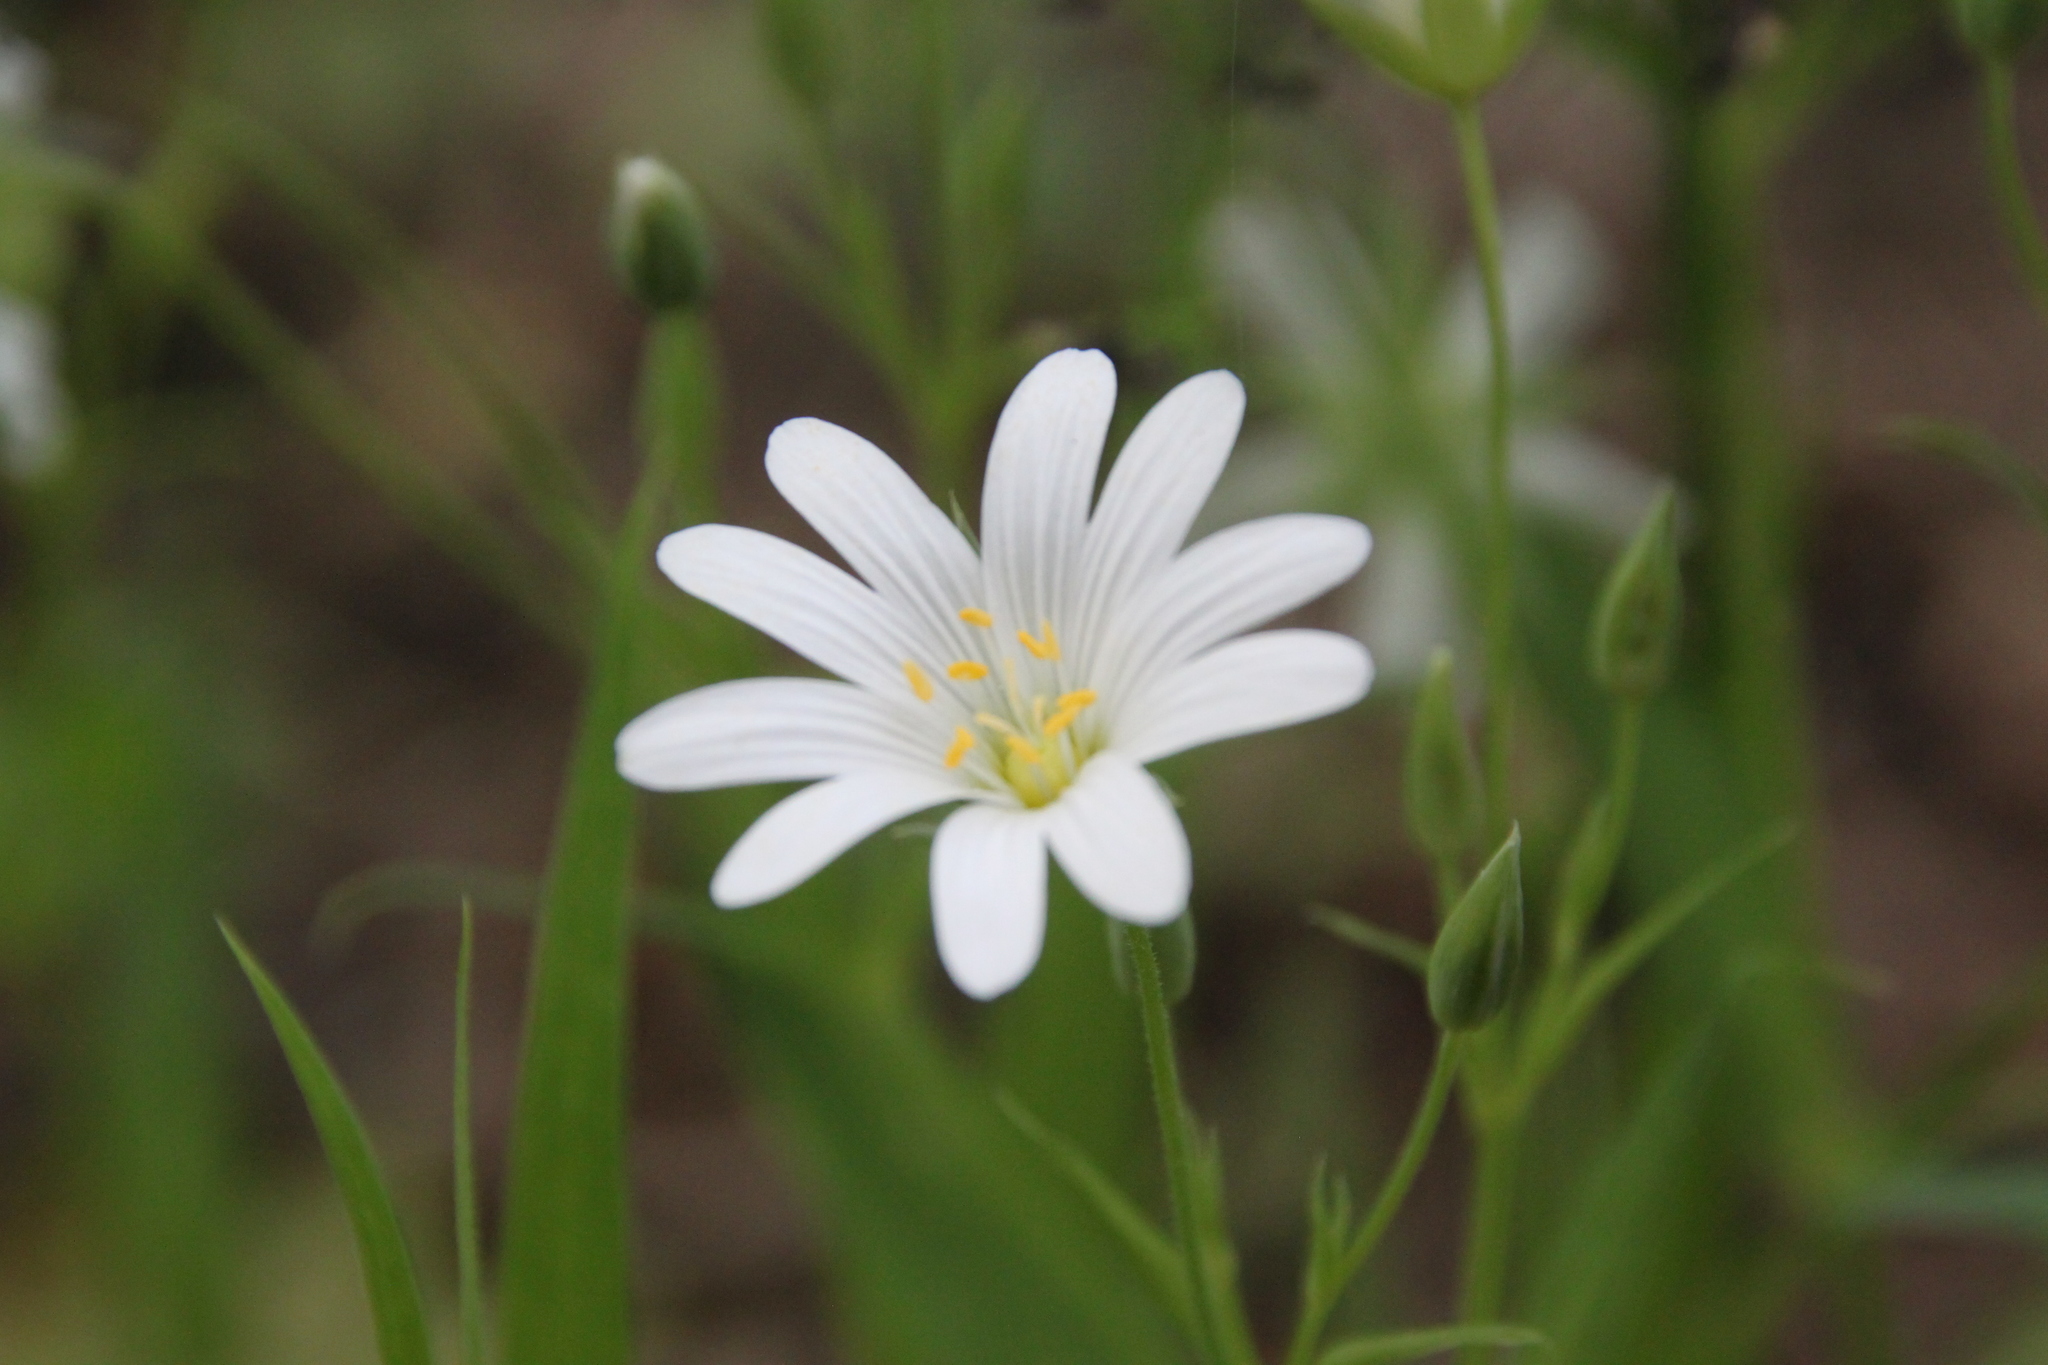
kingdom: Plantae
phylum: Tracheophyta
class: Magnoliopsida
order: Caryophyllales
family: Caryophyllaceae
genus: Rabelera
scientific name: Rabelera holostea
